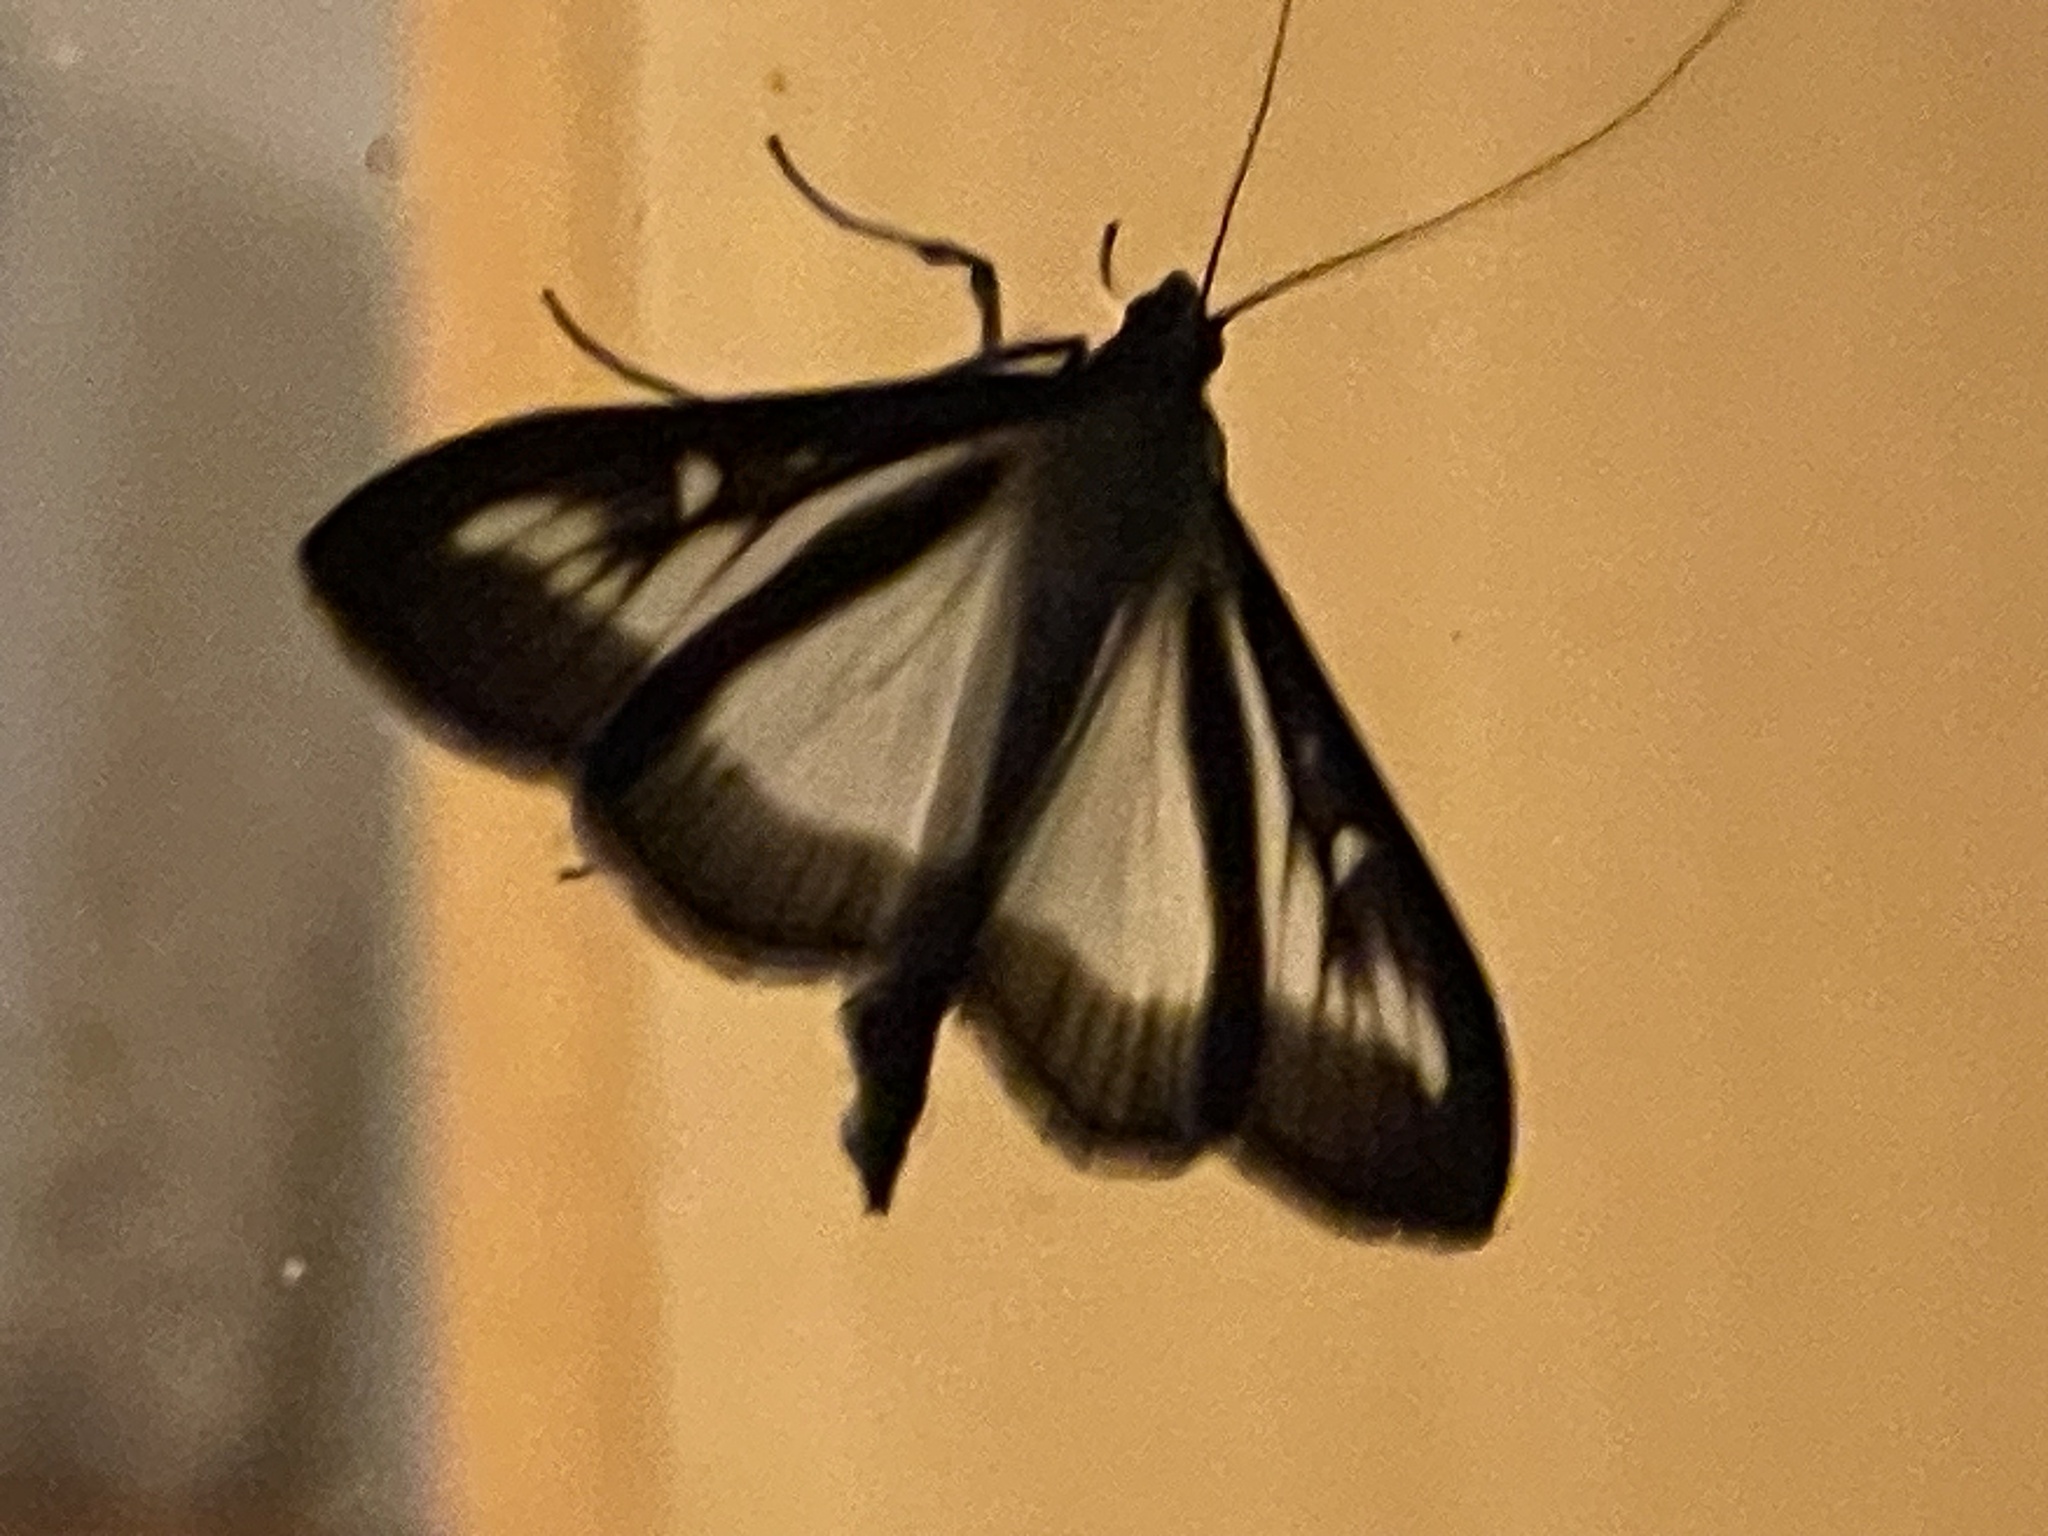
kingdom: Animalia
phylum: Arthropoda
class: Insecta
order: Lepidoptera
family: Crambidae
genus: Cydalima
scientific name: Cydalima perspectalis
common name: Box tree moth
